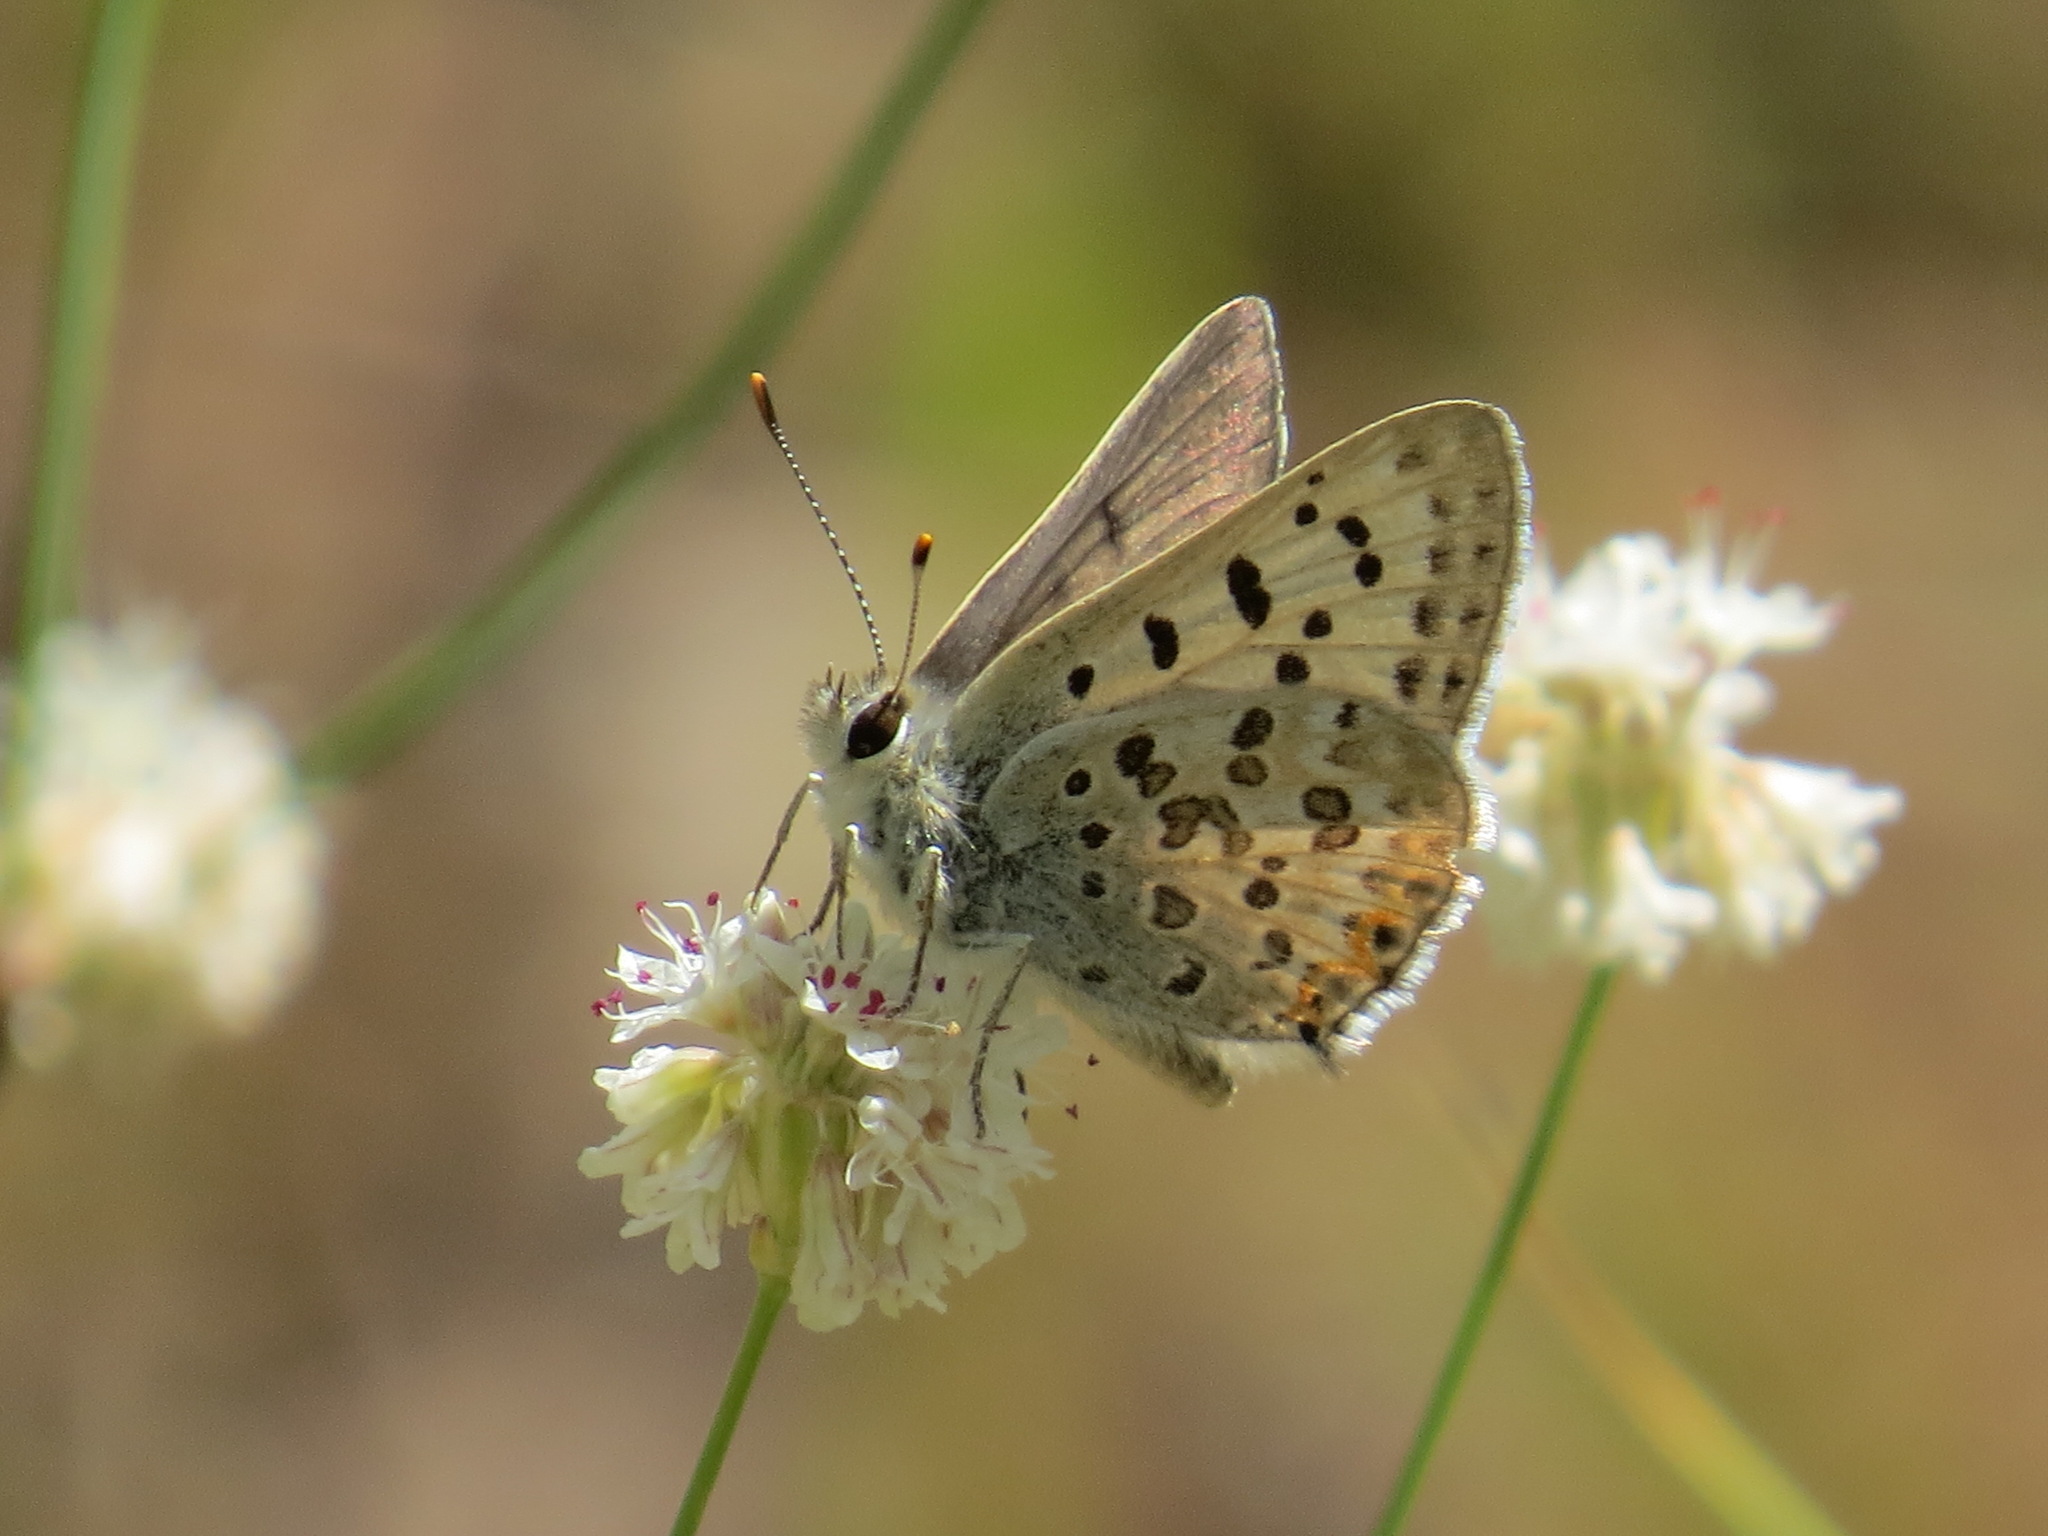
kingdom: Animalia
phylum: Arthropoda
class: Insecta
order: Lepidoptera
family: Lycaenidae
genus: Tharsalea
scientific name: Tharsalea editha
